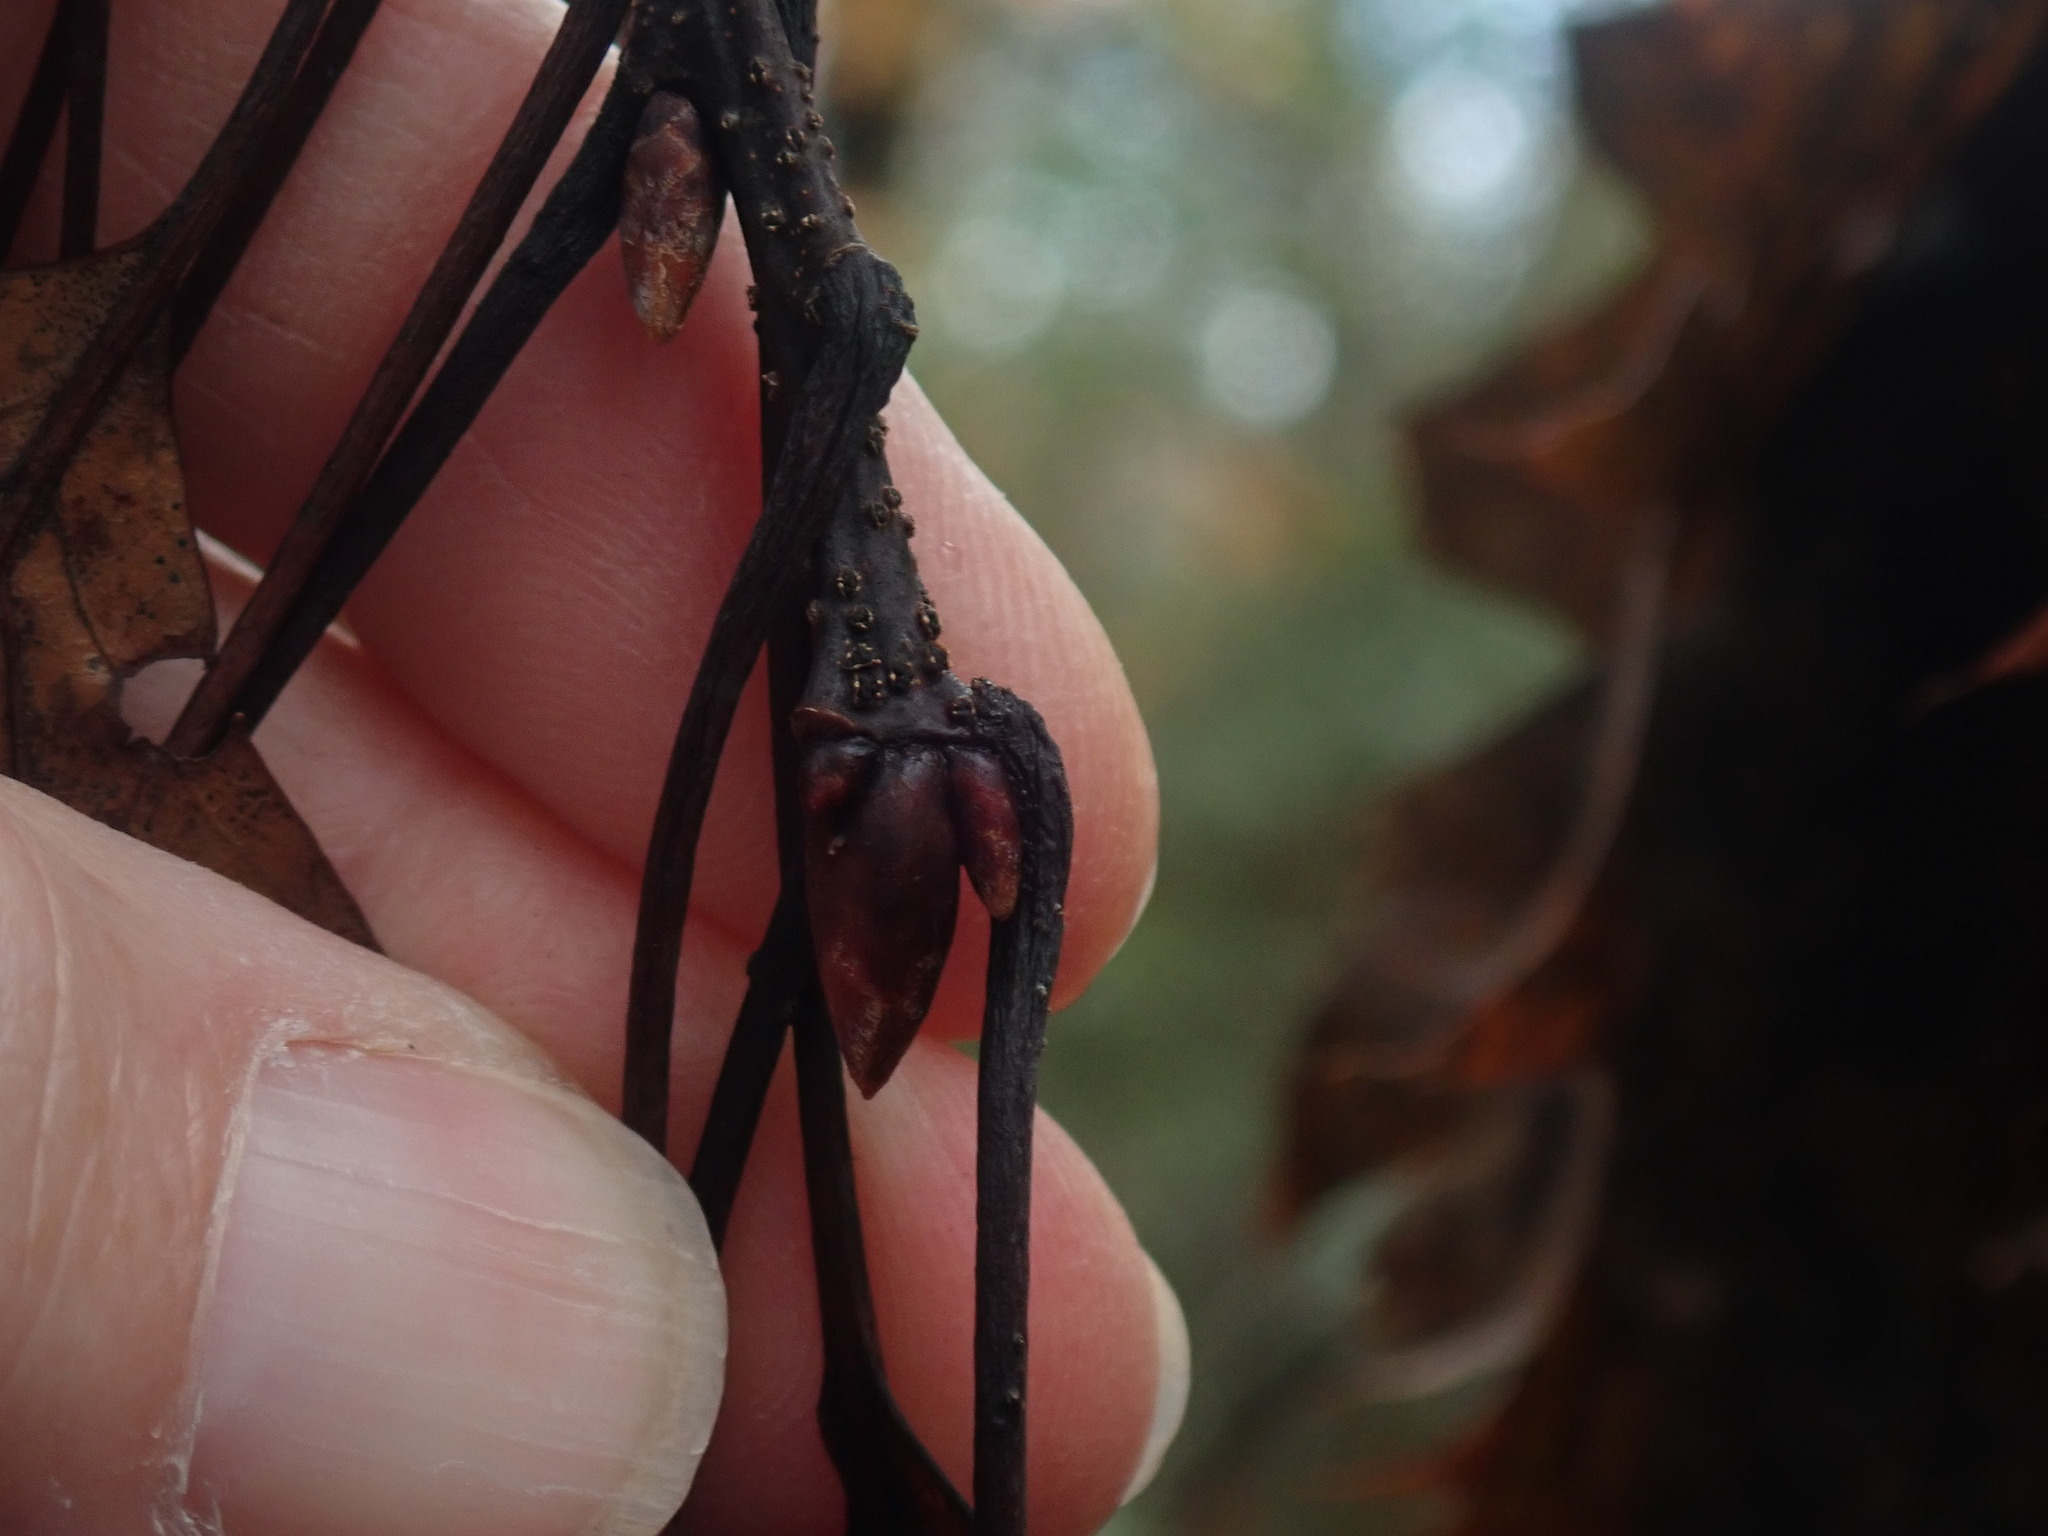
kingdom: Plantae
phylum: Tracheophyta
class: Magnoliopsida
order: Fagales
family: Fagaceae
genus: Quercus
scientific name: Quercus rubra
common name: Red oak
